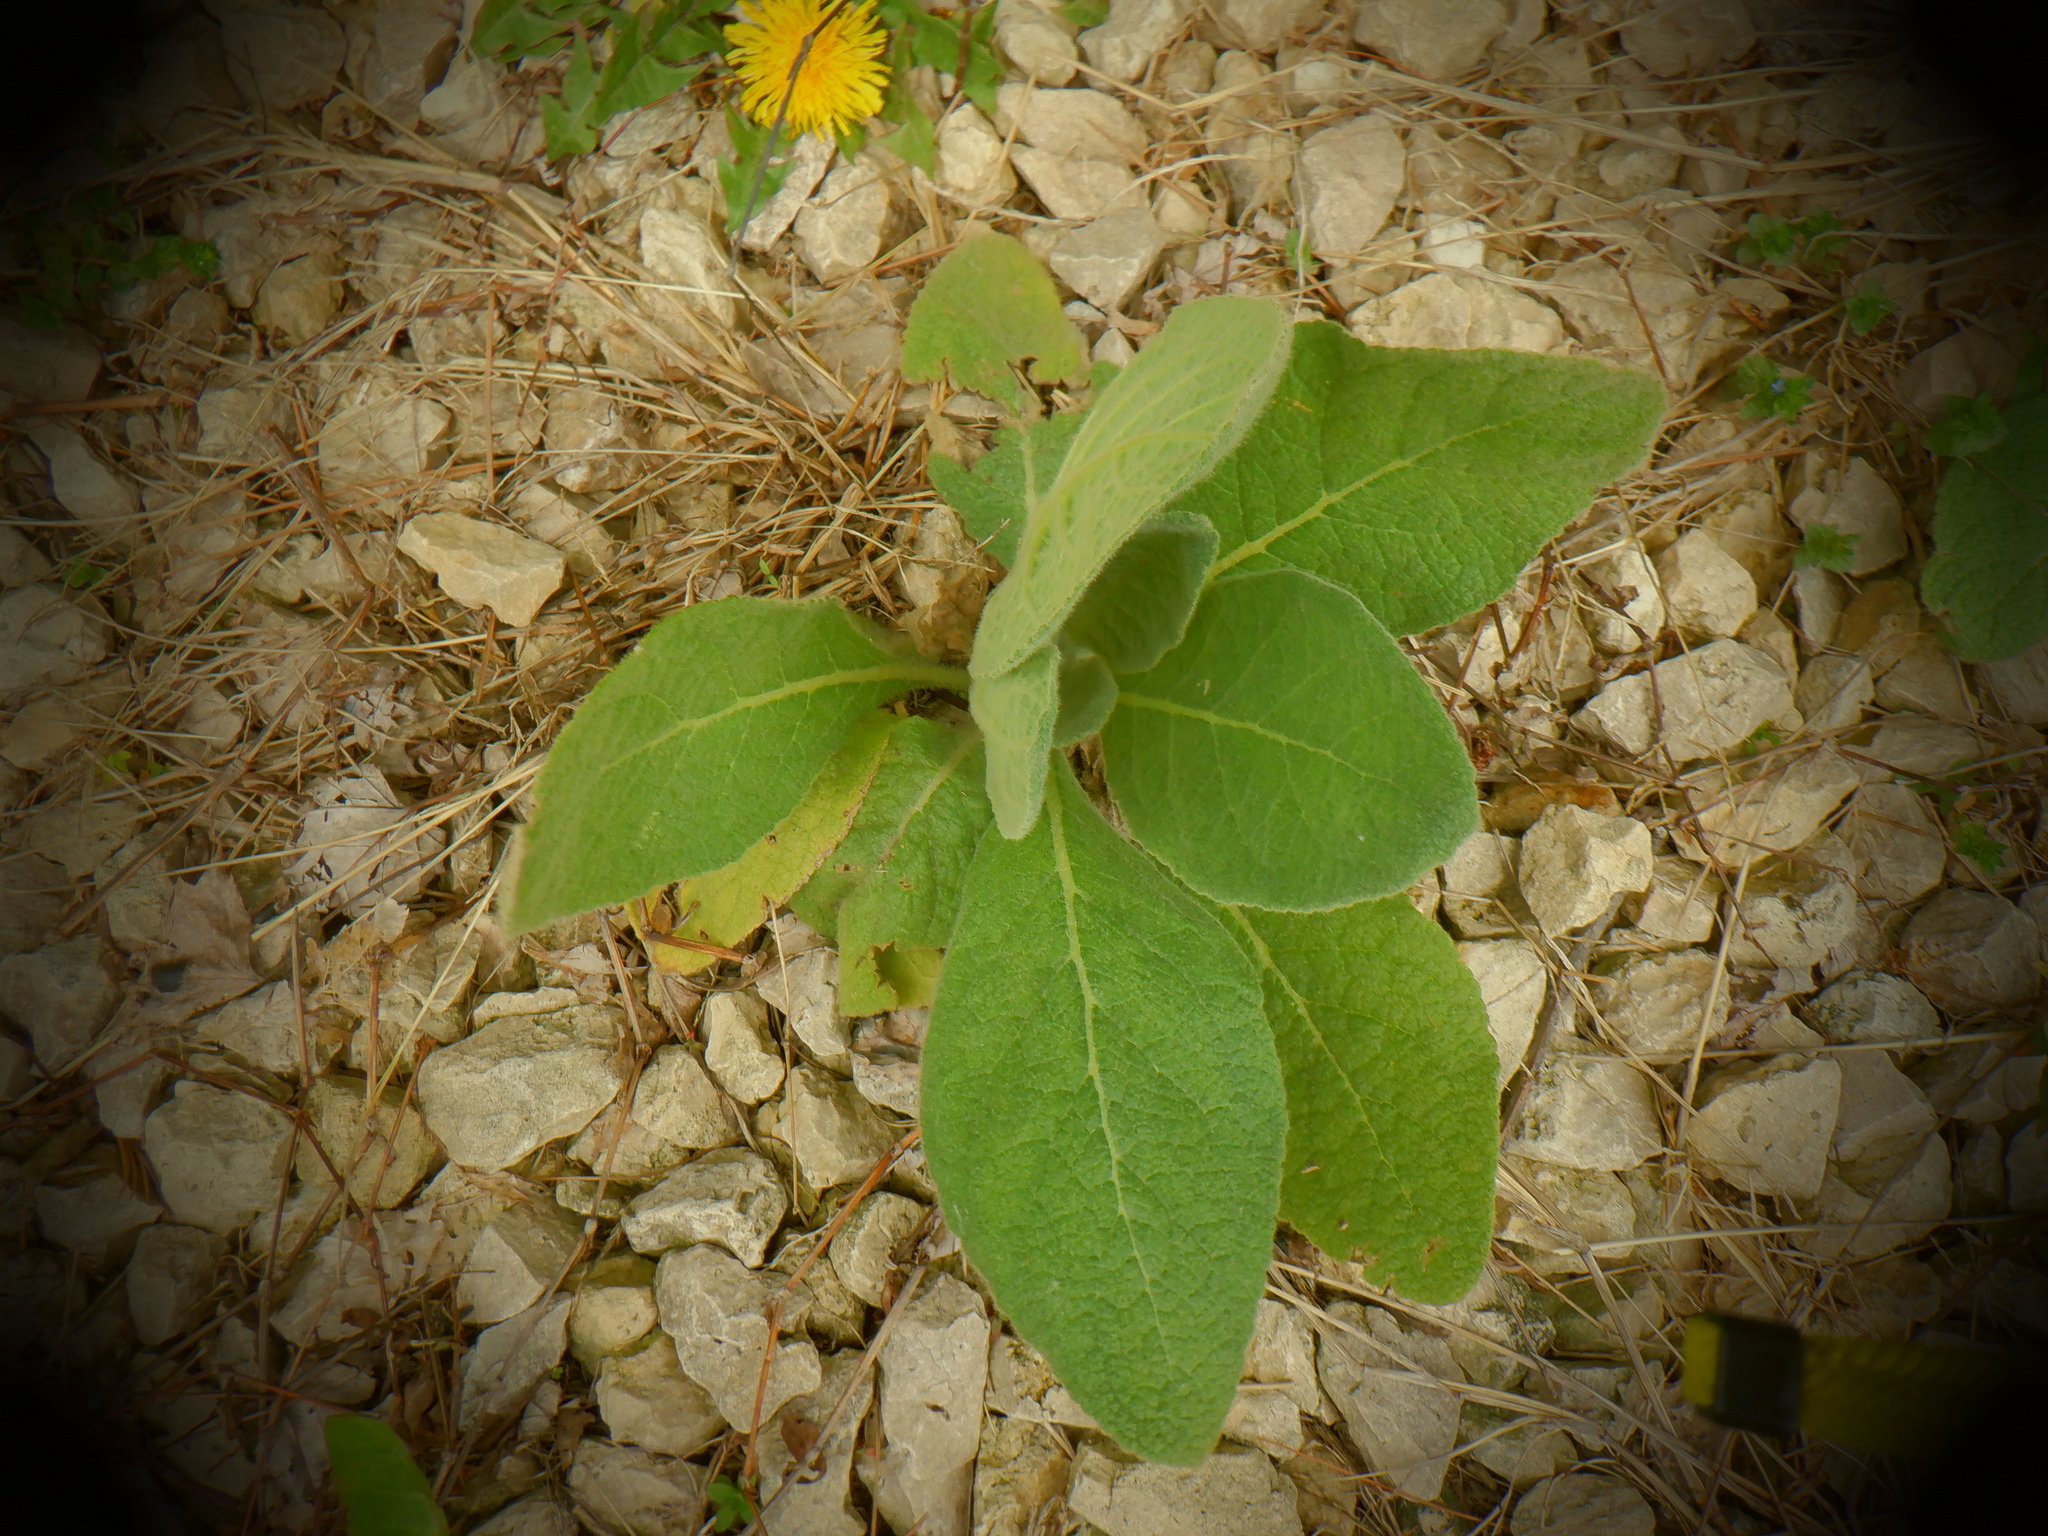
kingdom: Plantae
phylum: Tracheophyta
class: Magnoliopsida
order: Lamiales
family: Scrophulariaceae
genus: Verbascum
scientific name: Verbascum thapsus
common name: Common mullein
